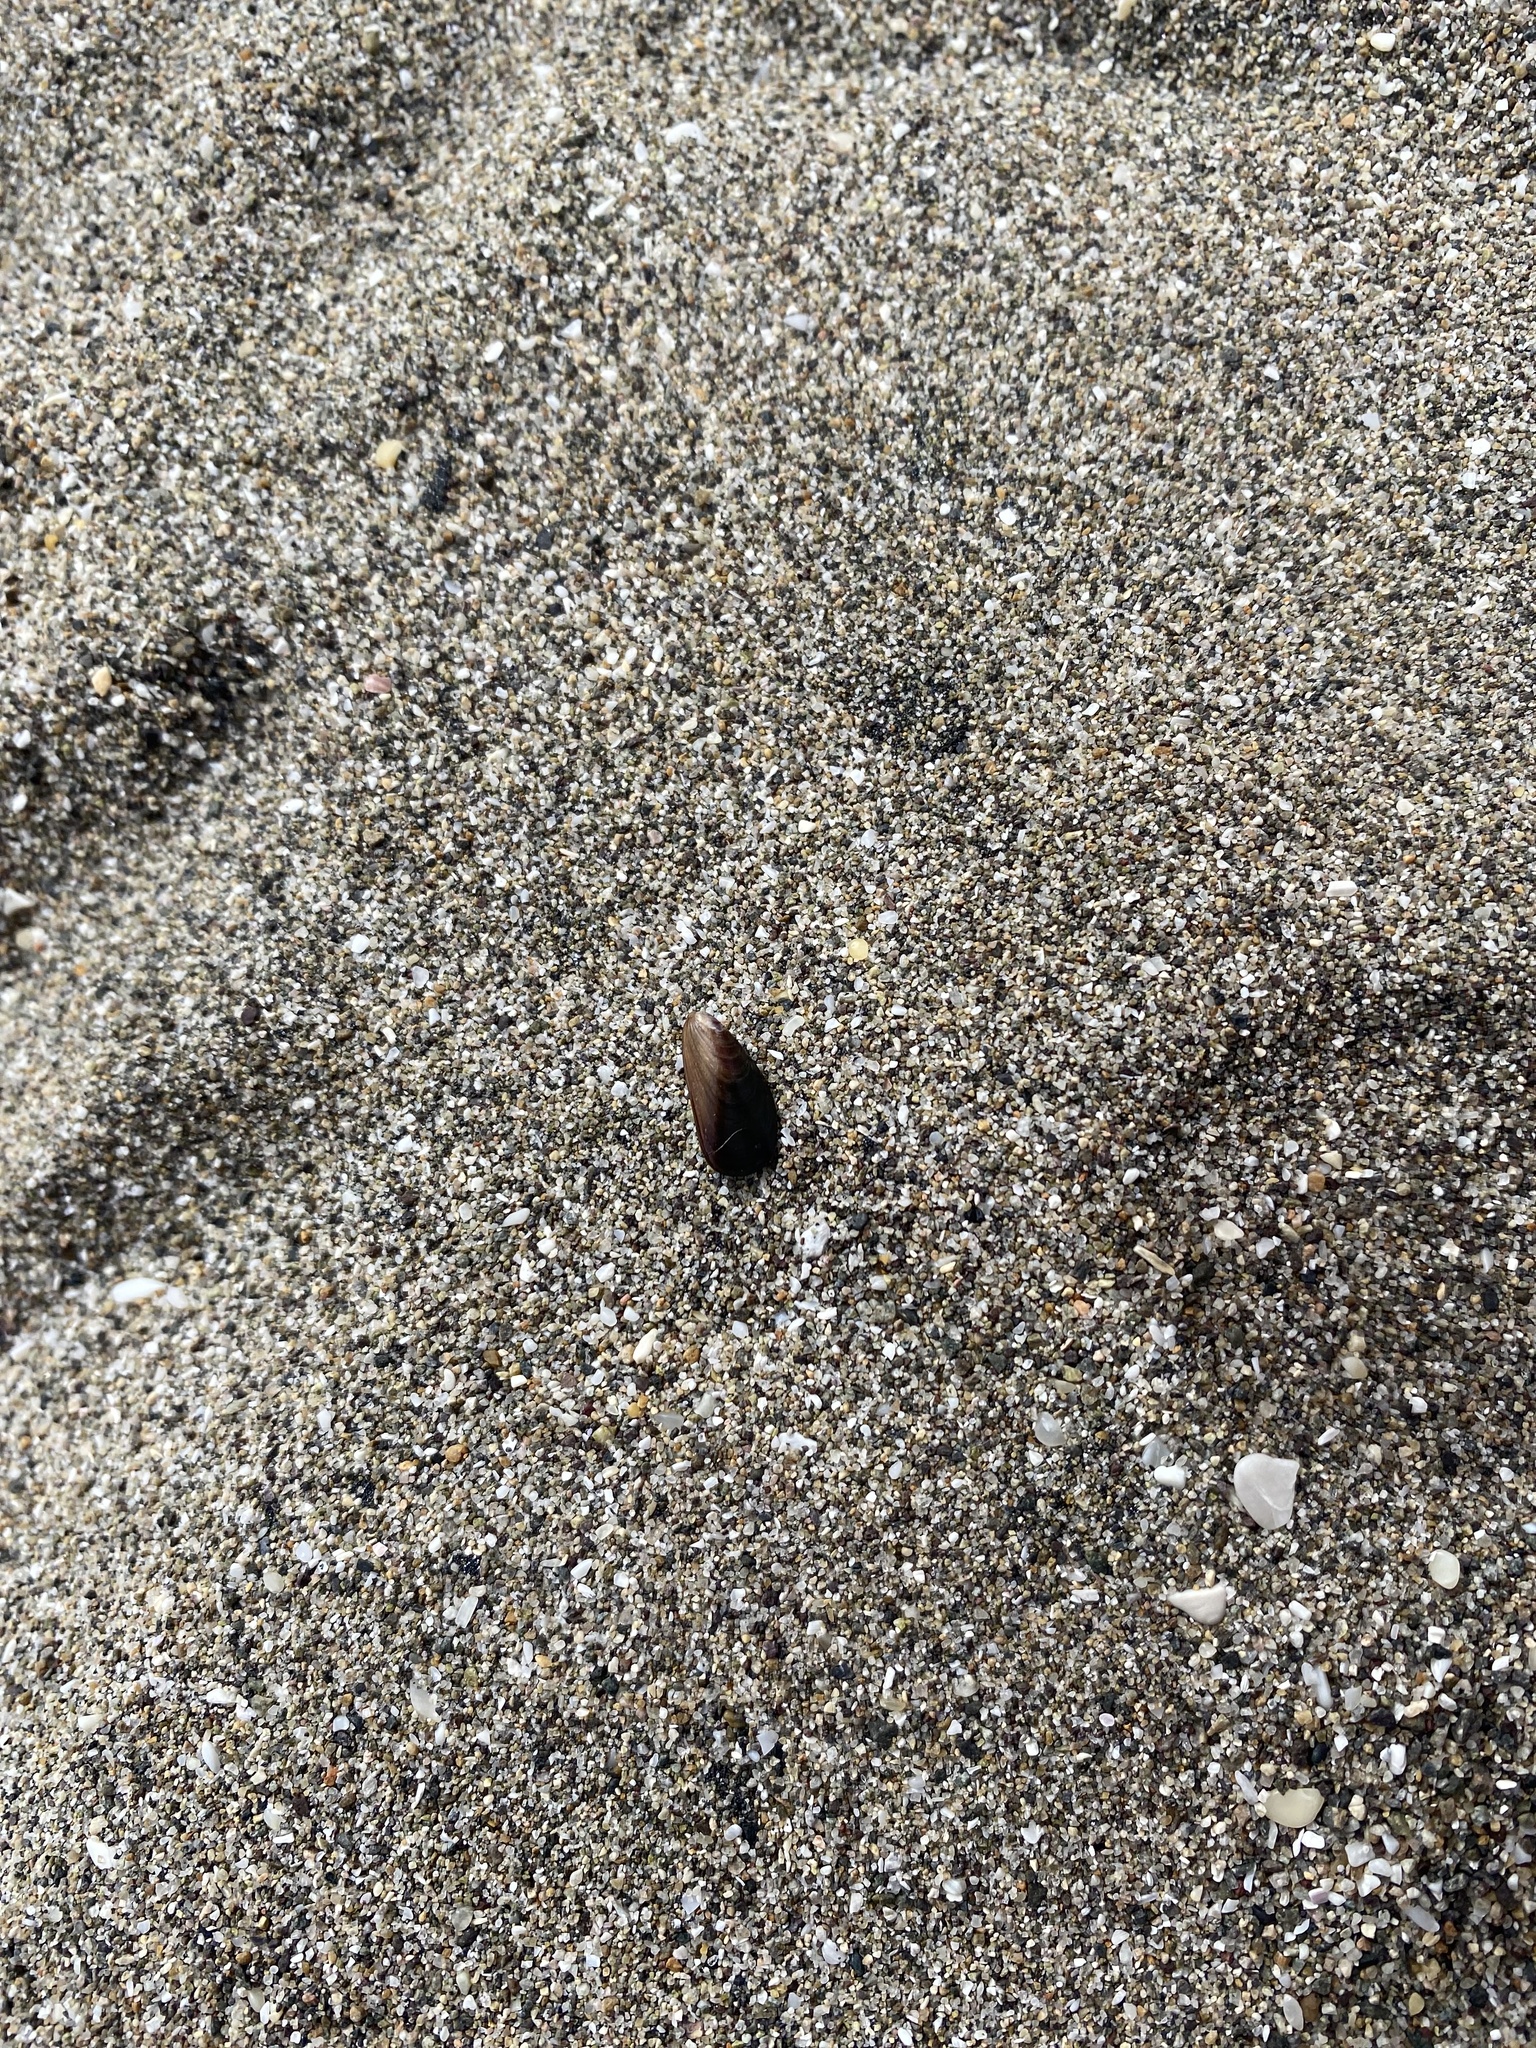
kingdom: Animalia
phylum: Mollusca
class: Bivalvia
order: Mytilida
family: Mytilidae
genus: Semimytilus
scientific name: Semimytilus patagonicus
